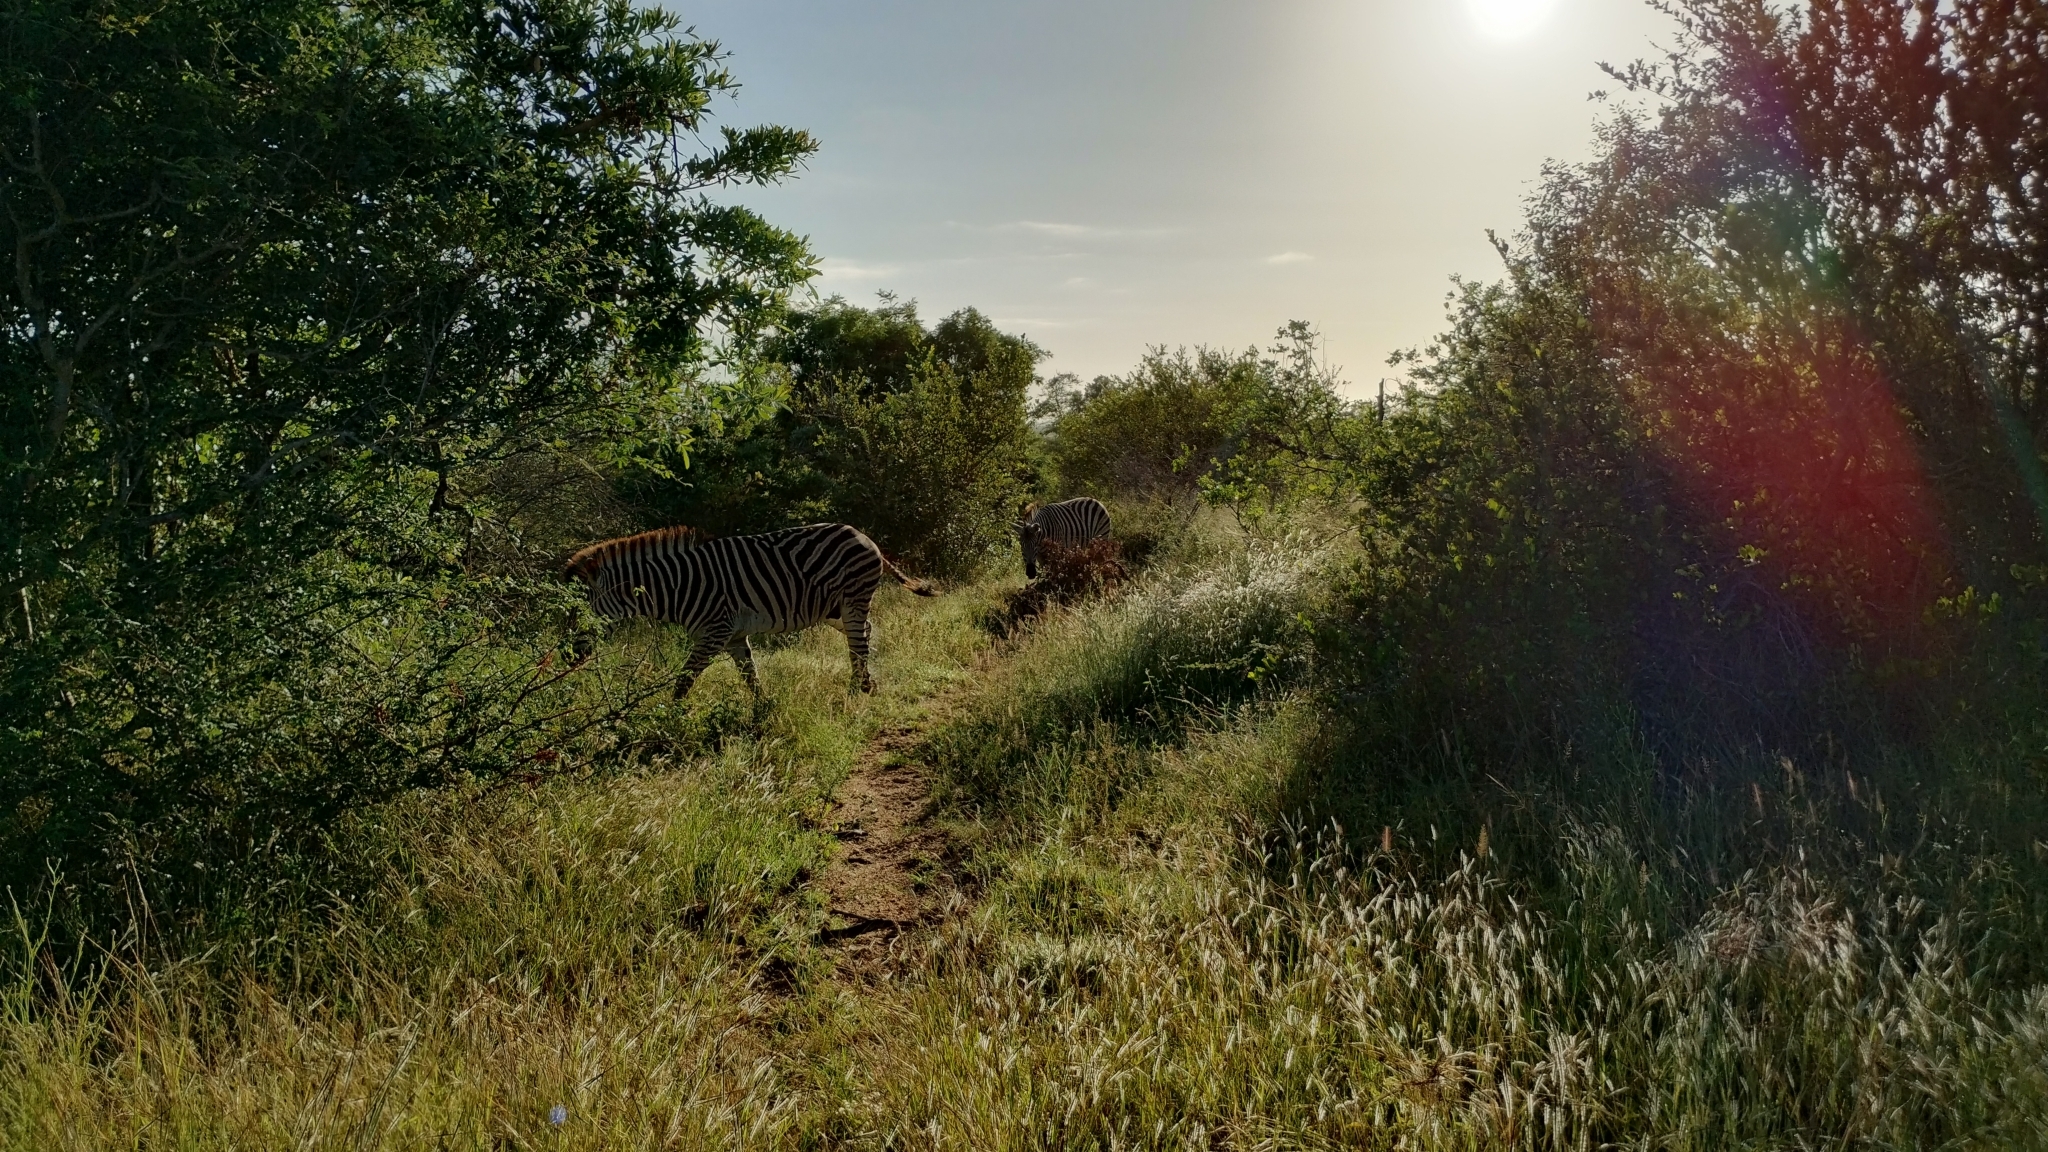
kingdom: Animalia
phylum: Chordata
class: Mammalia
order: Perissodactyla
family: Equidae
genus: Equus
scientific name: Equus quagga
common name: Plains zebra
